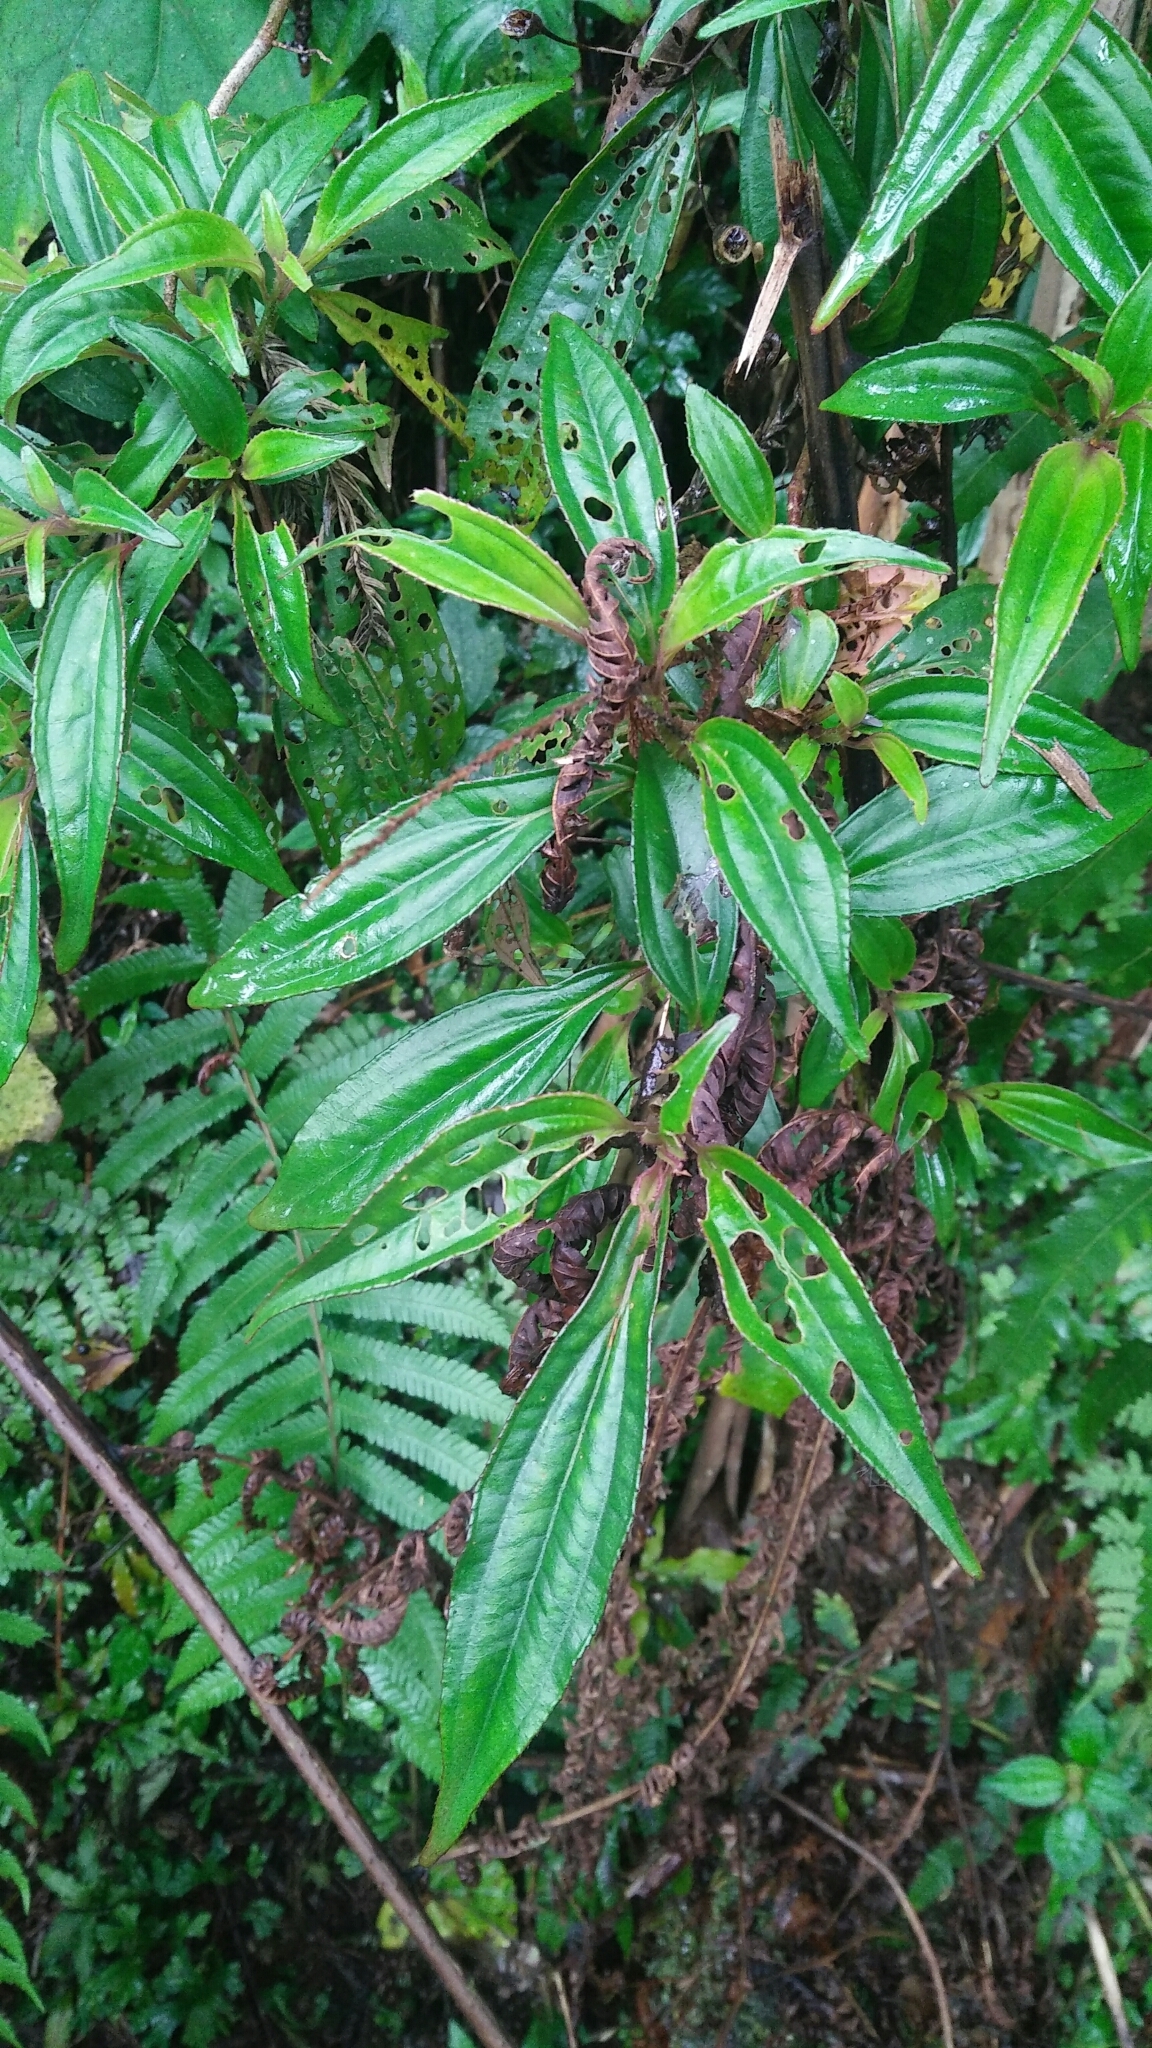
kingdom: Plantae
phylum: Tracheophyta
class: Magnoliopsida
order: Myrtales
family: Melastomataceae
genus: Bredia
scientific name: Bredia oldhamii
